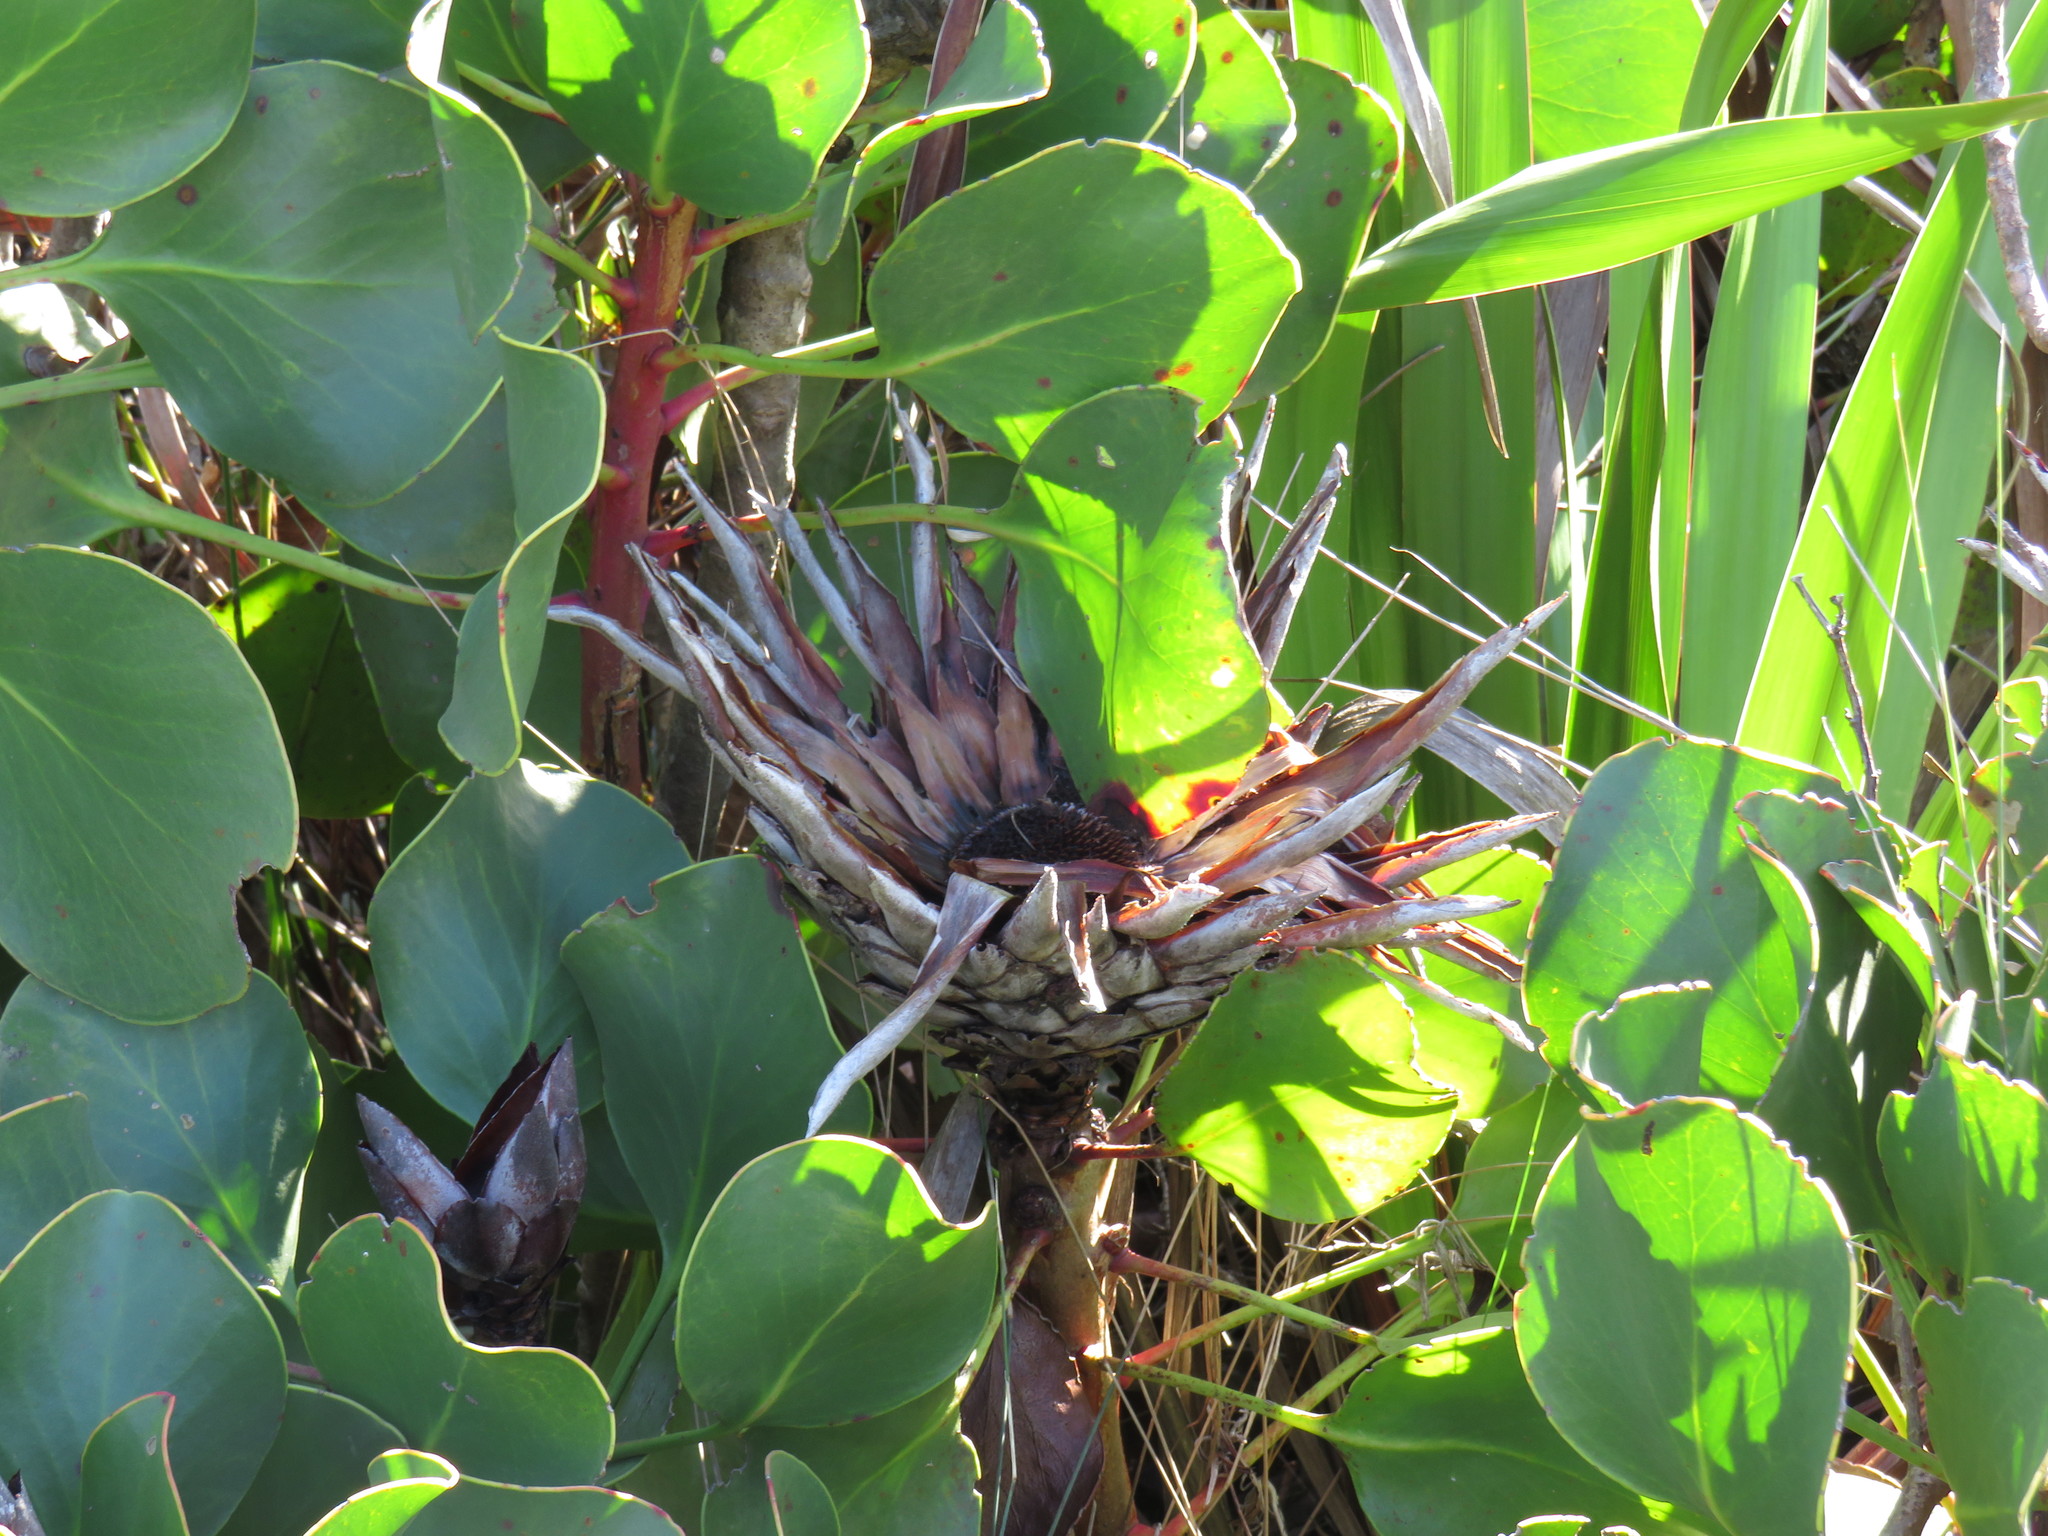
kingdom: Plantae
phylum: Tracheophyta
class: Magnoliopsida
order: Proteales
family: Proteaceae
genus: Protea
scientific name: Protea cynaroides
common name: King protea
